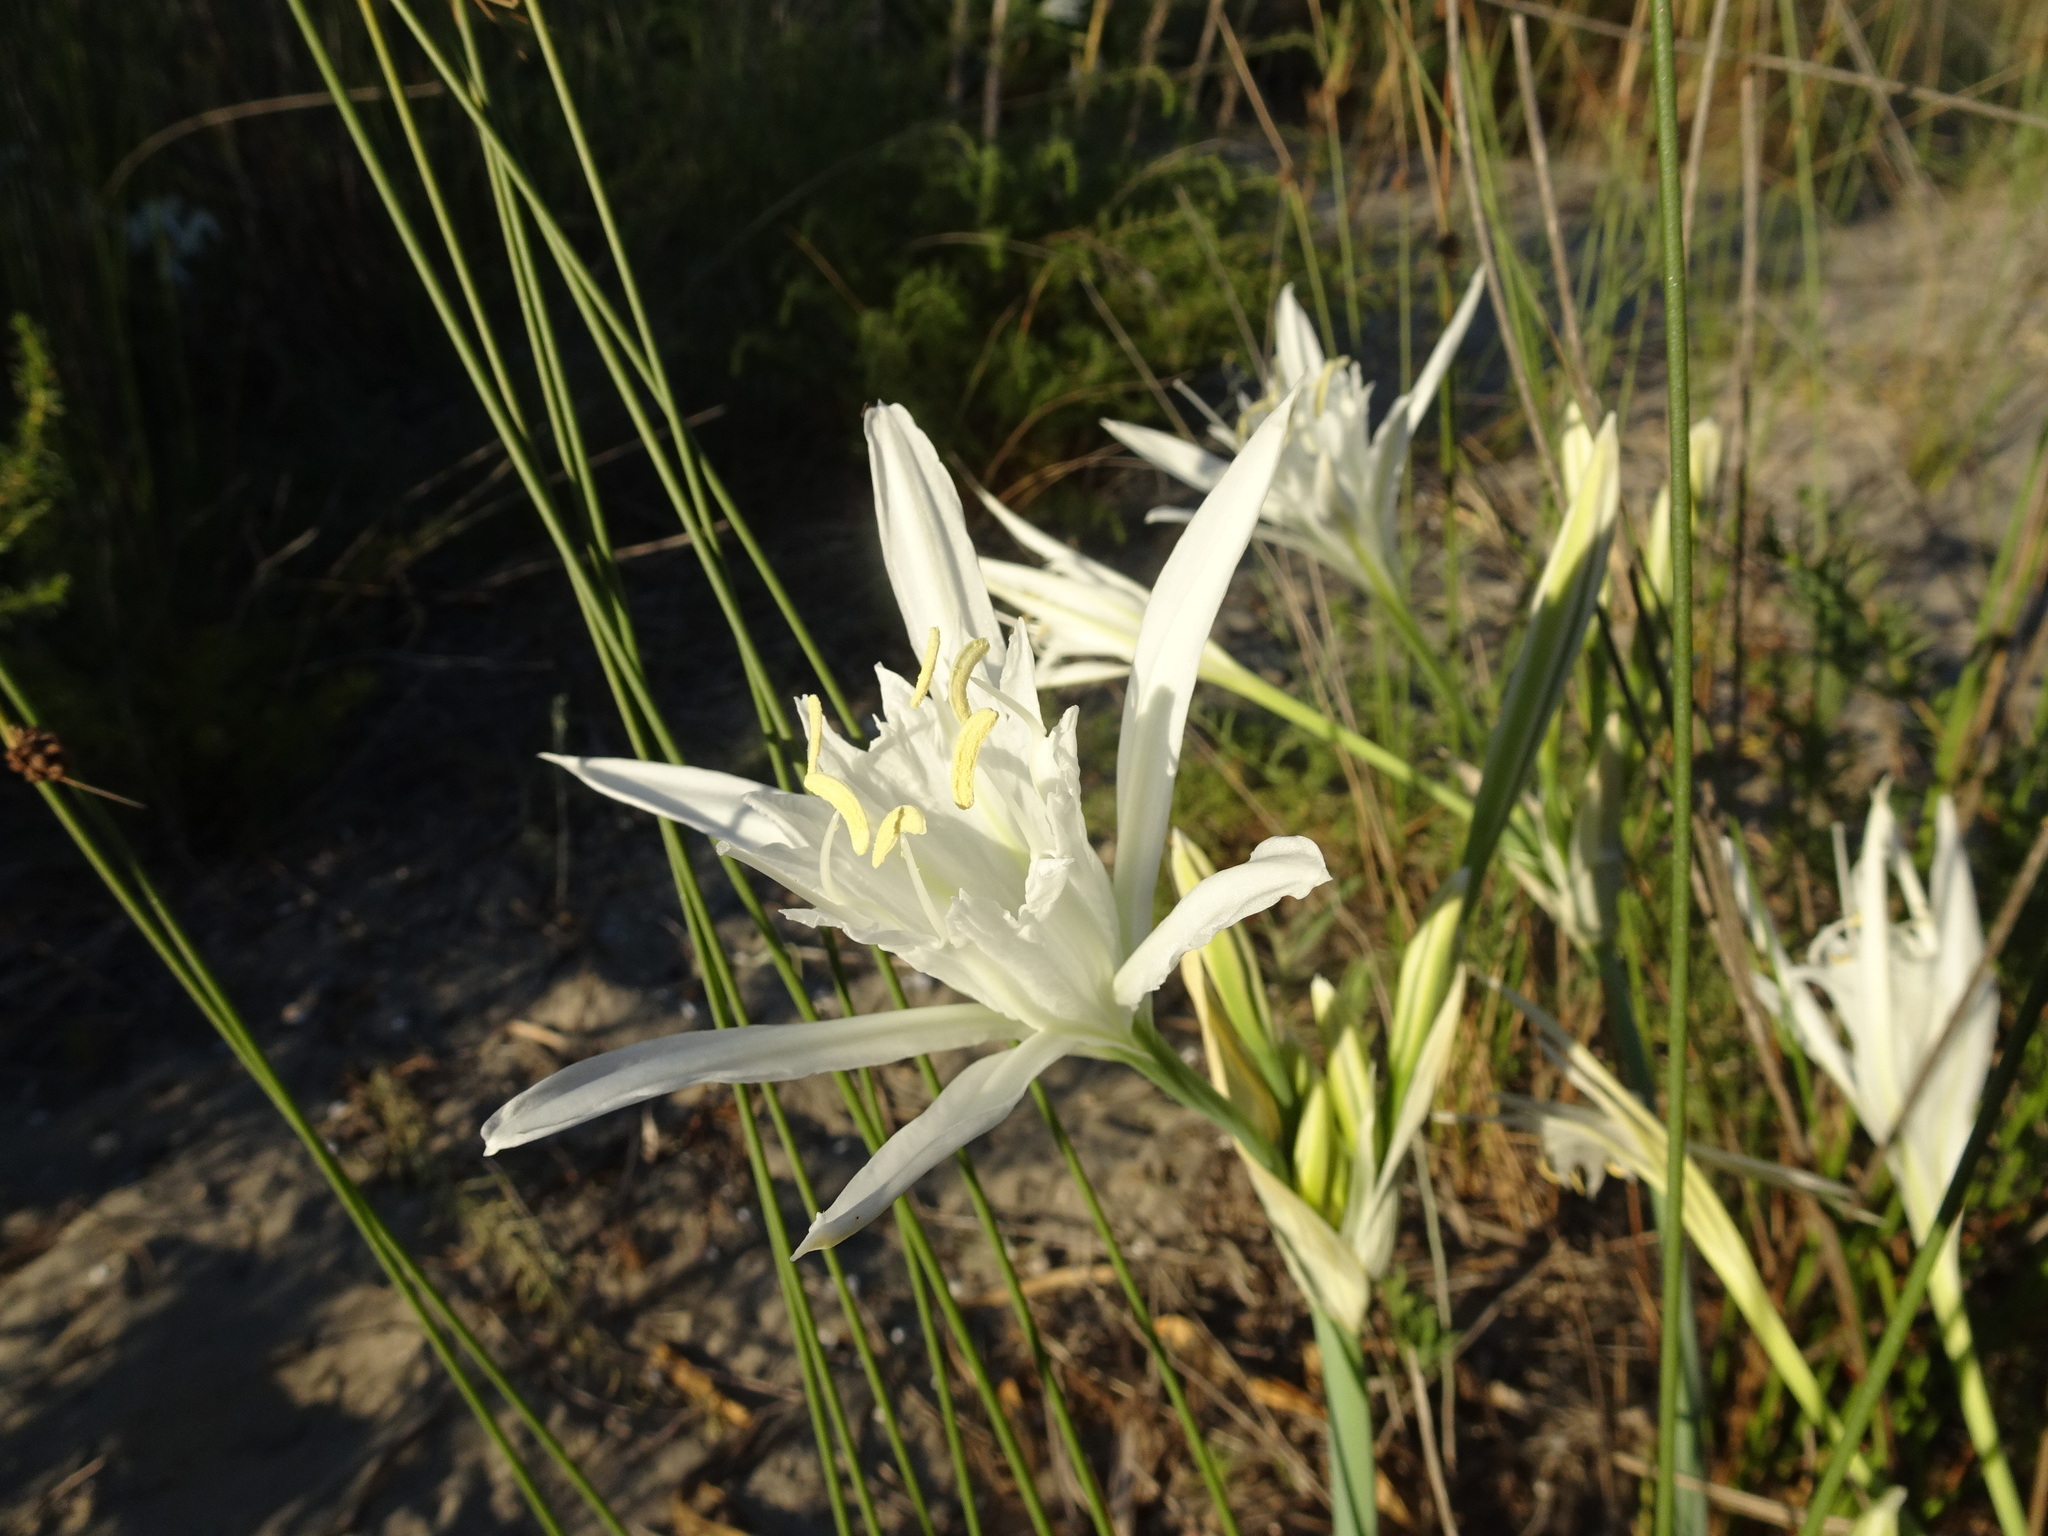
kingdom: Plantae
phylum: Tracheophyta
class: Liliopsida
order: Asparagales
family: Amaryllidaceae
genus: Pancratium
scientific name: Pancratium maritimum
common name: Sea-daffodil
